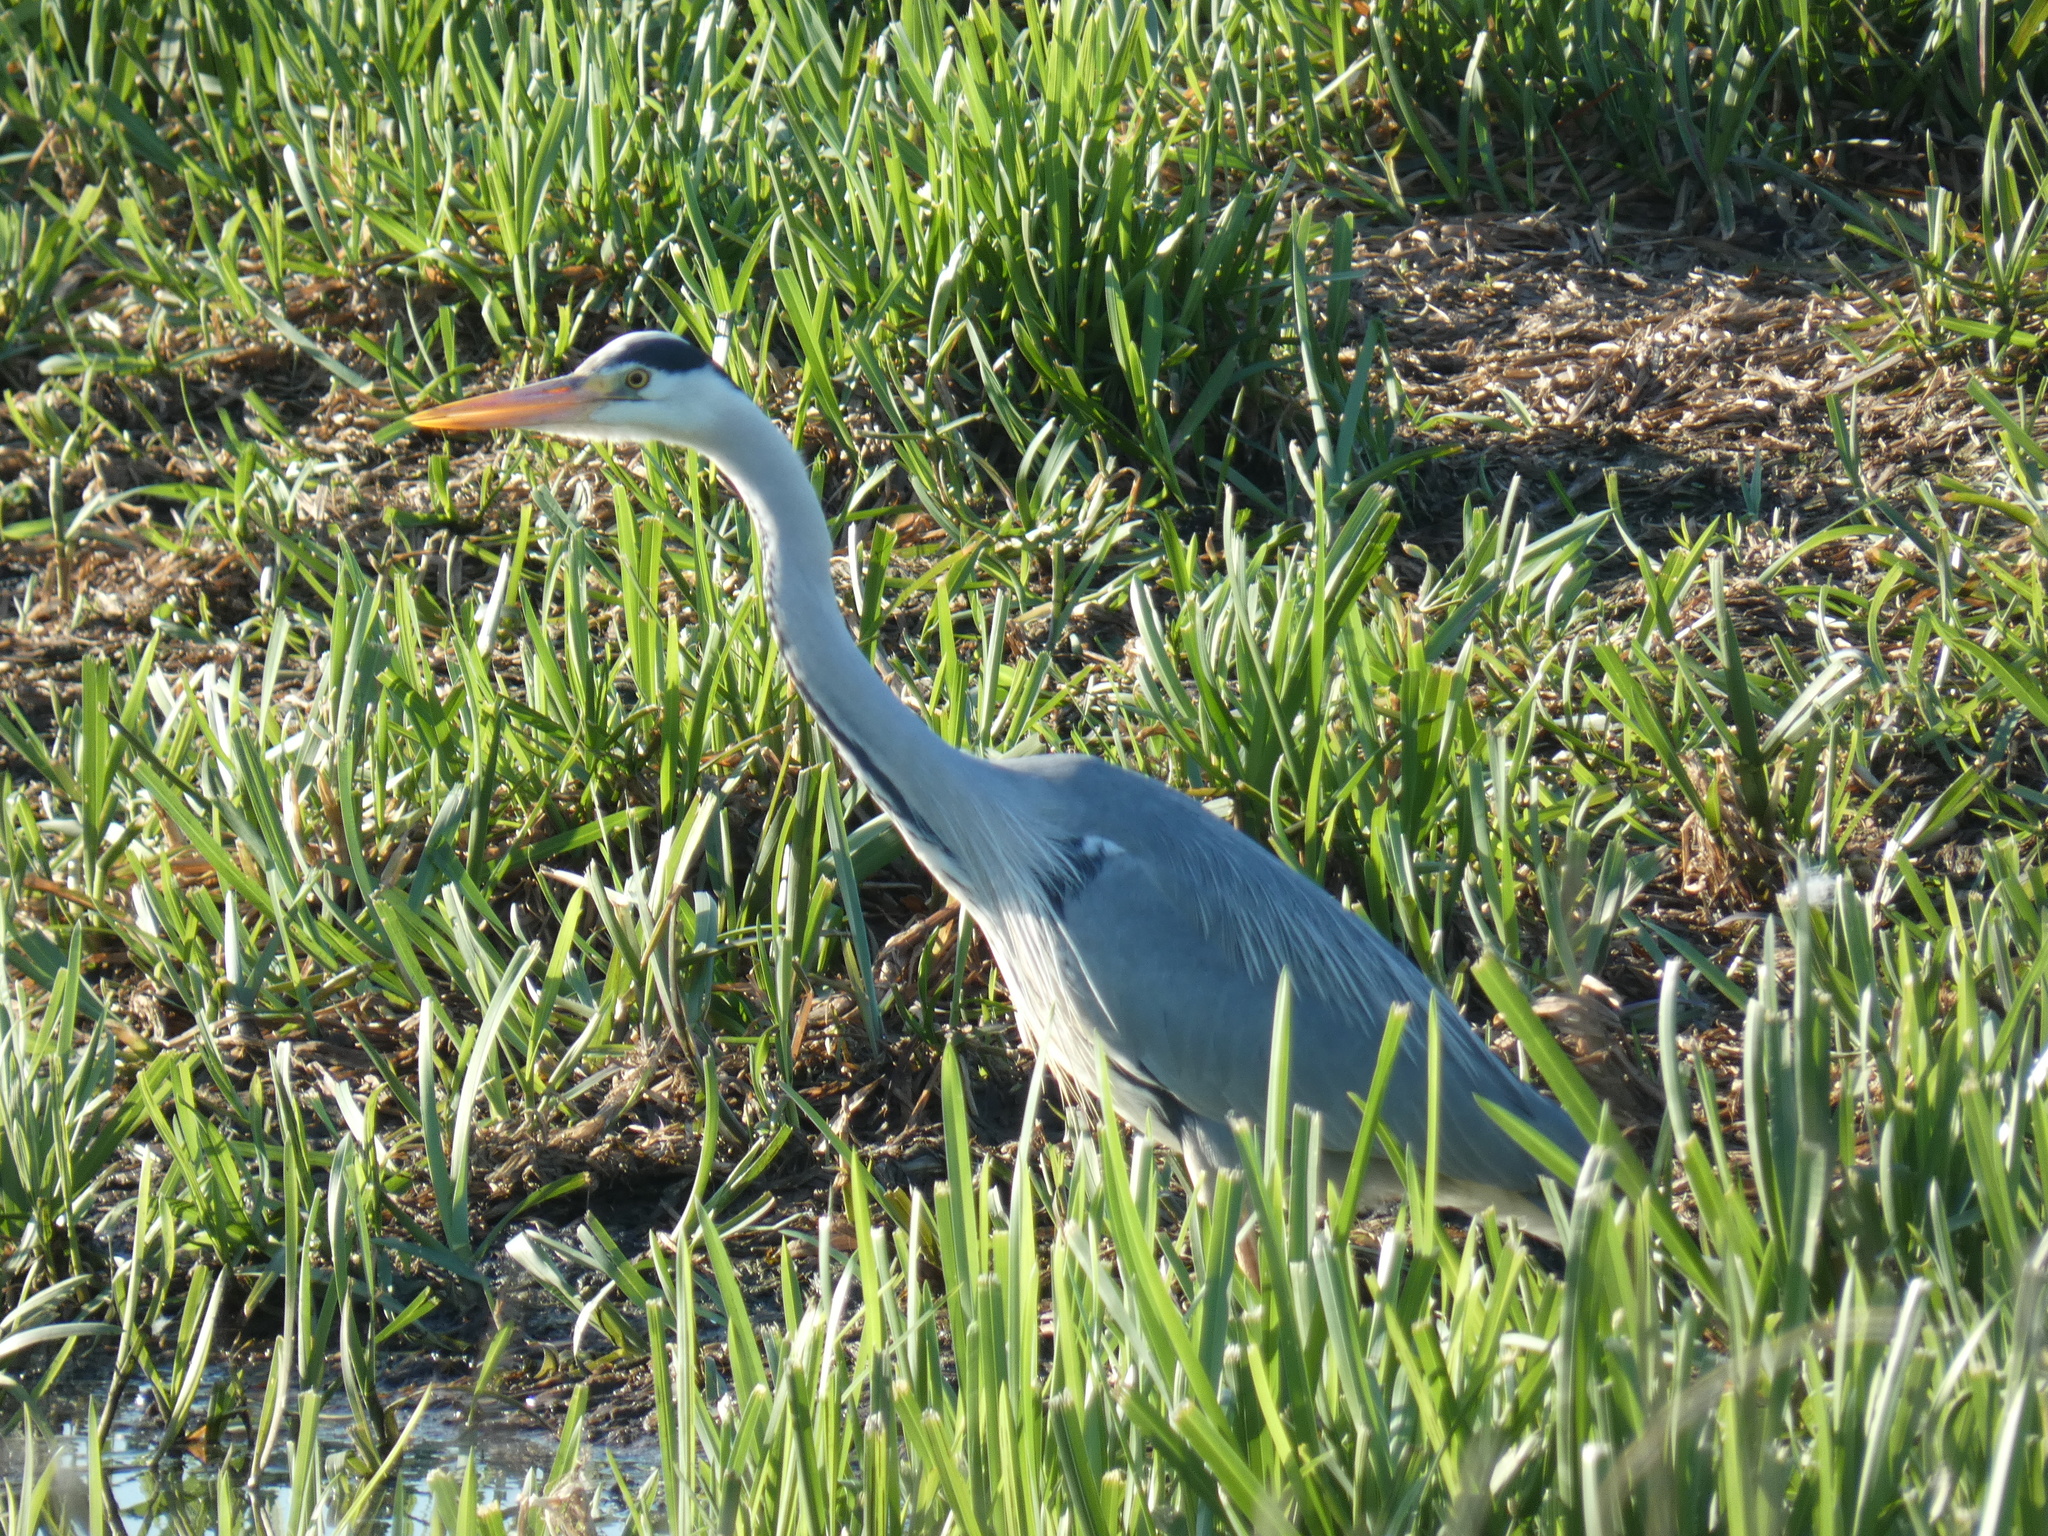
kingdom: Animalia
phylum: Chordata
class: Aves
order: Pelecaniformes
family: Ardeidae
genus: Ardea
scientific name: Ardea cinerea
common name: Grey heron
